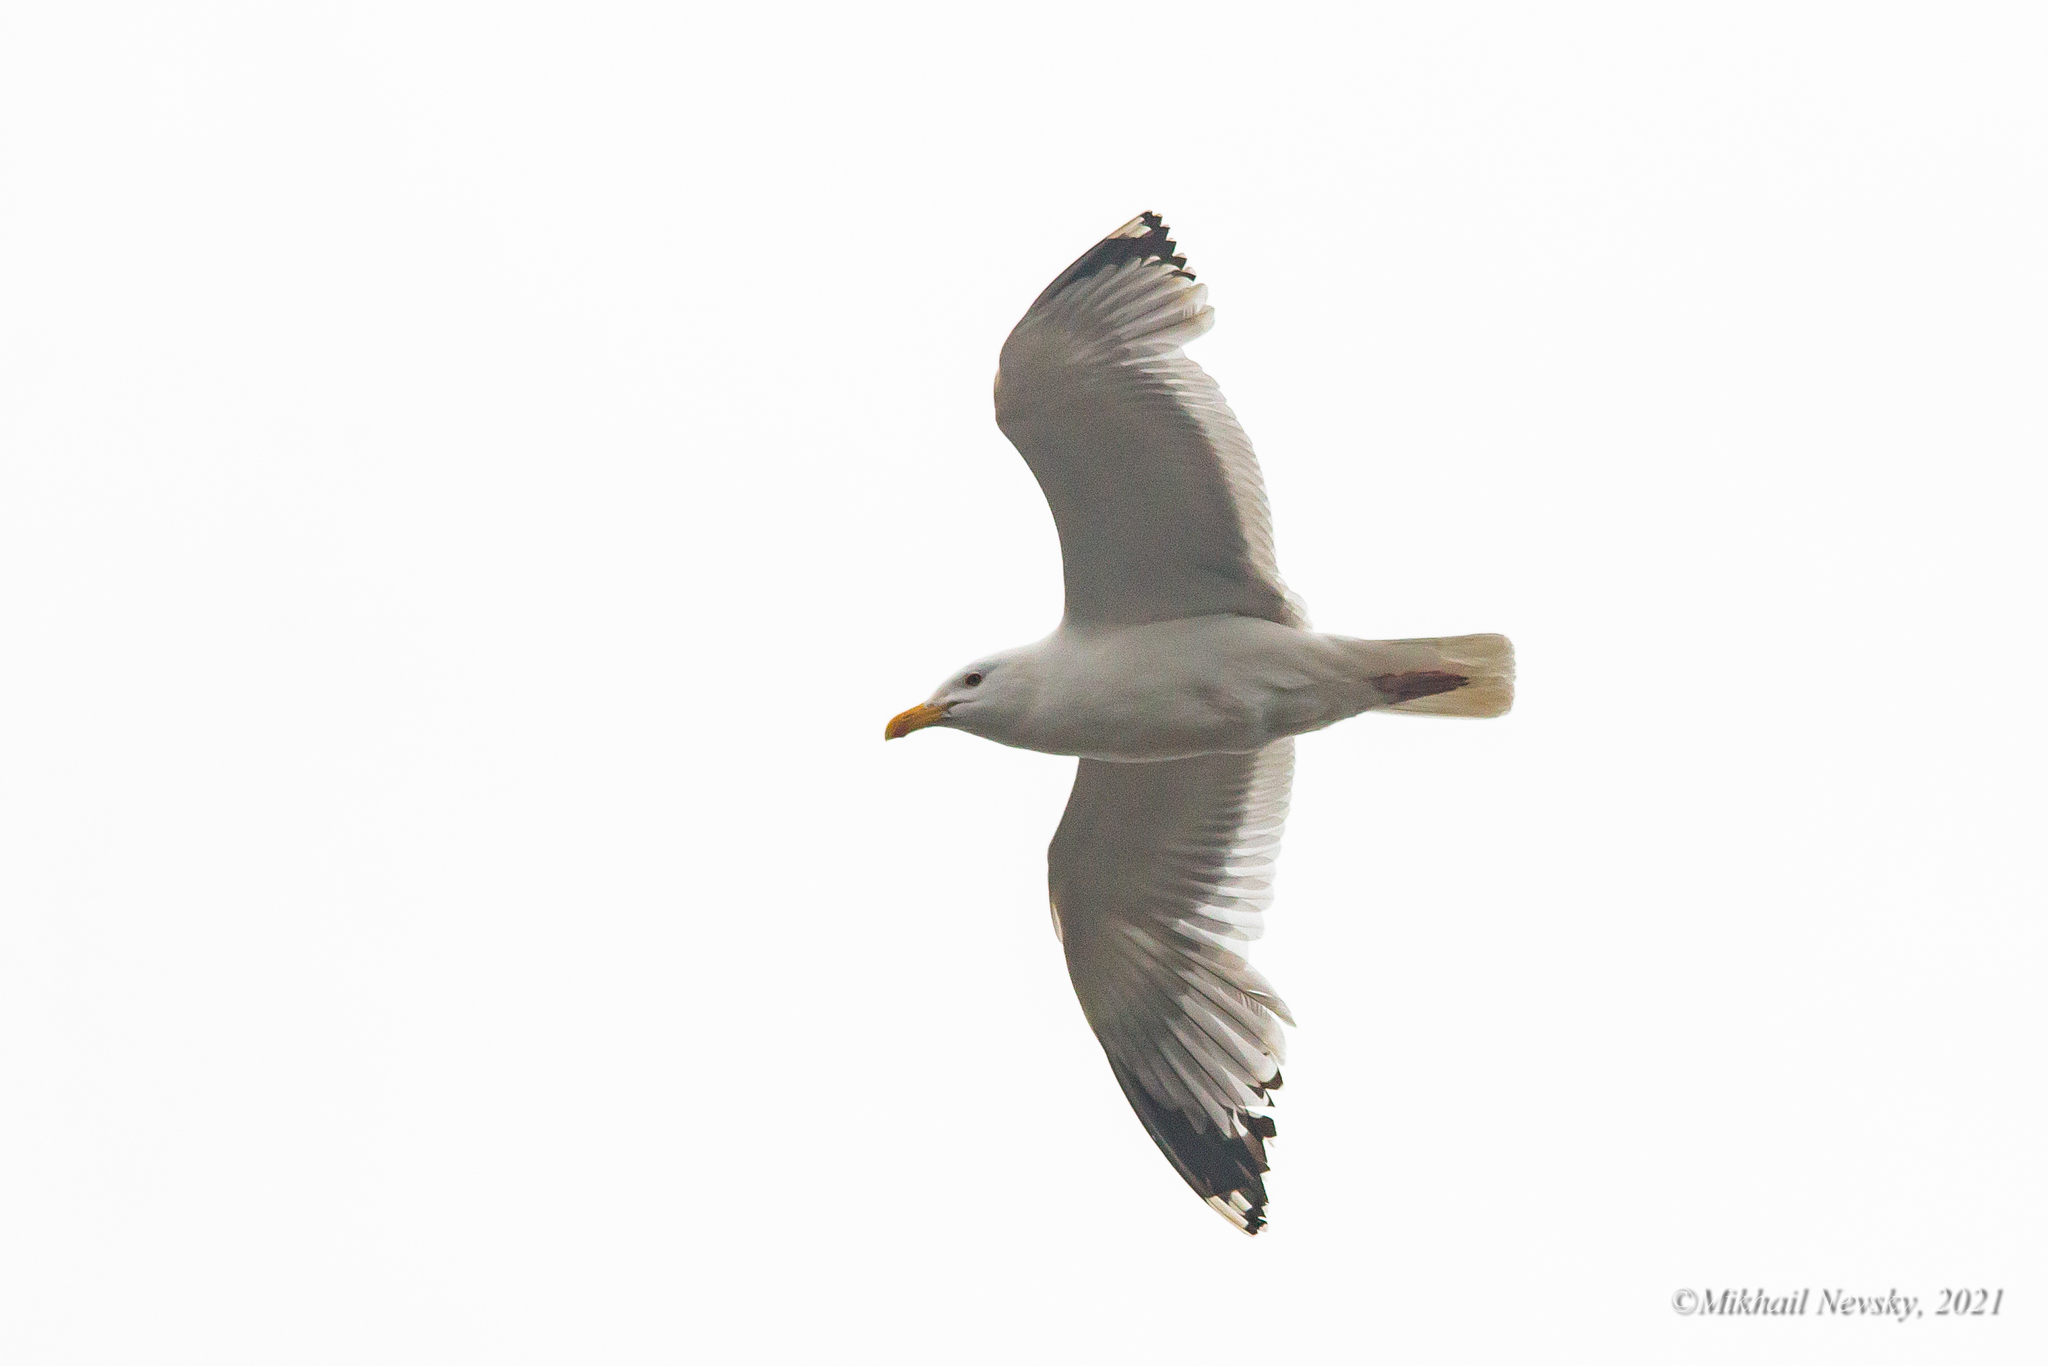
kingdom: Animalia
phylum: Chordata
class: Aves
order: Charadriiformes
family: Laridae
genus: Larus
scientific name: Larus vegae
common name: Vega gull
